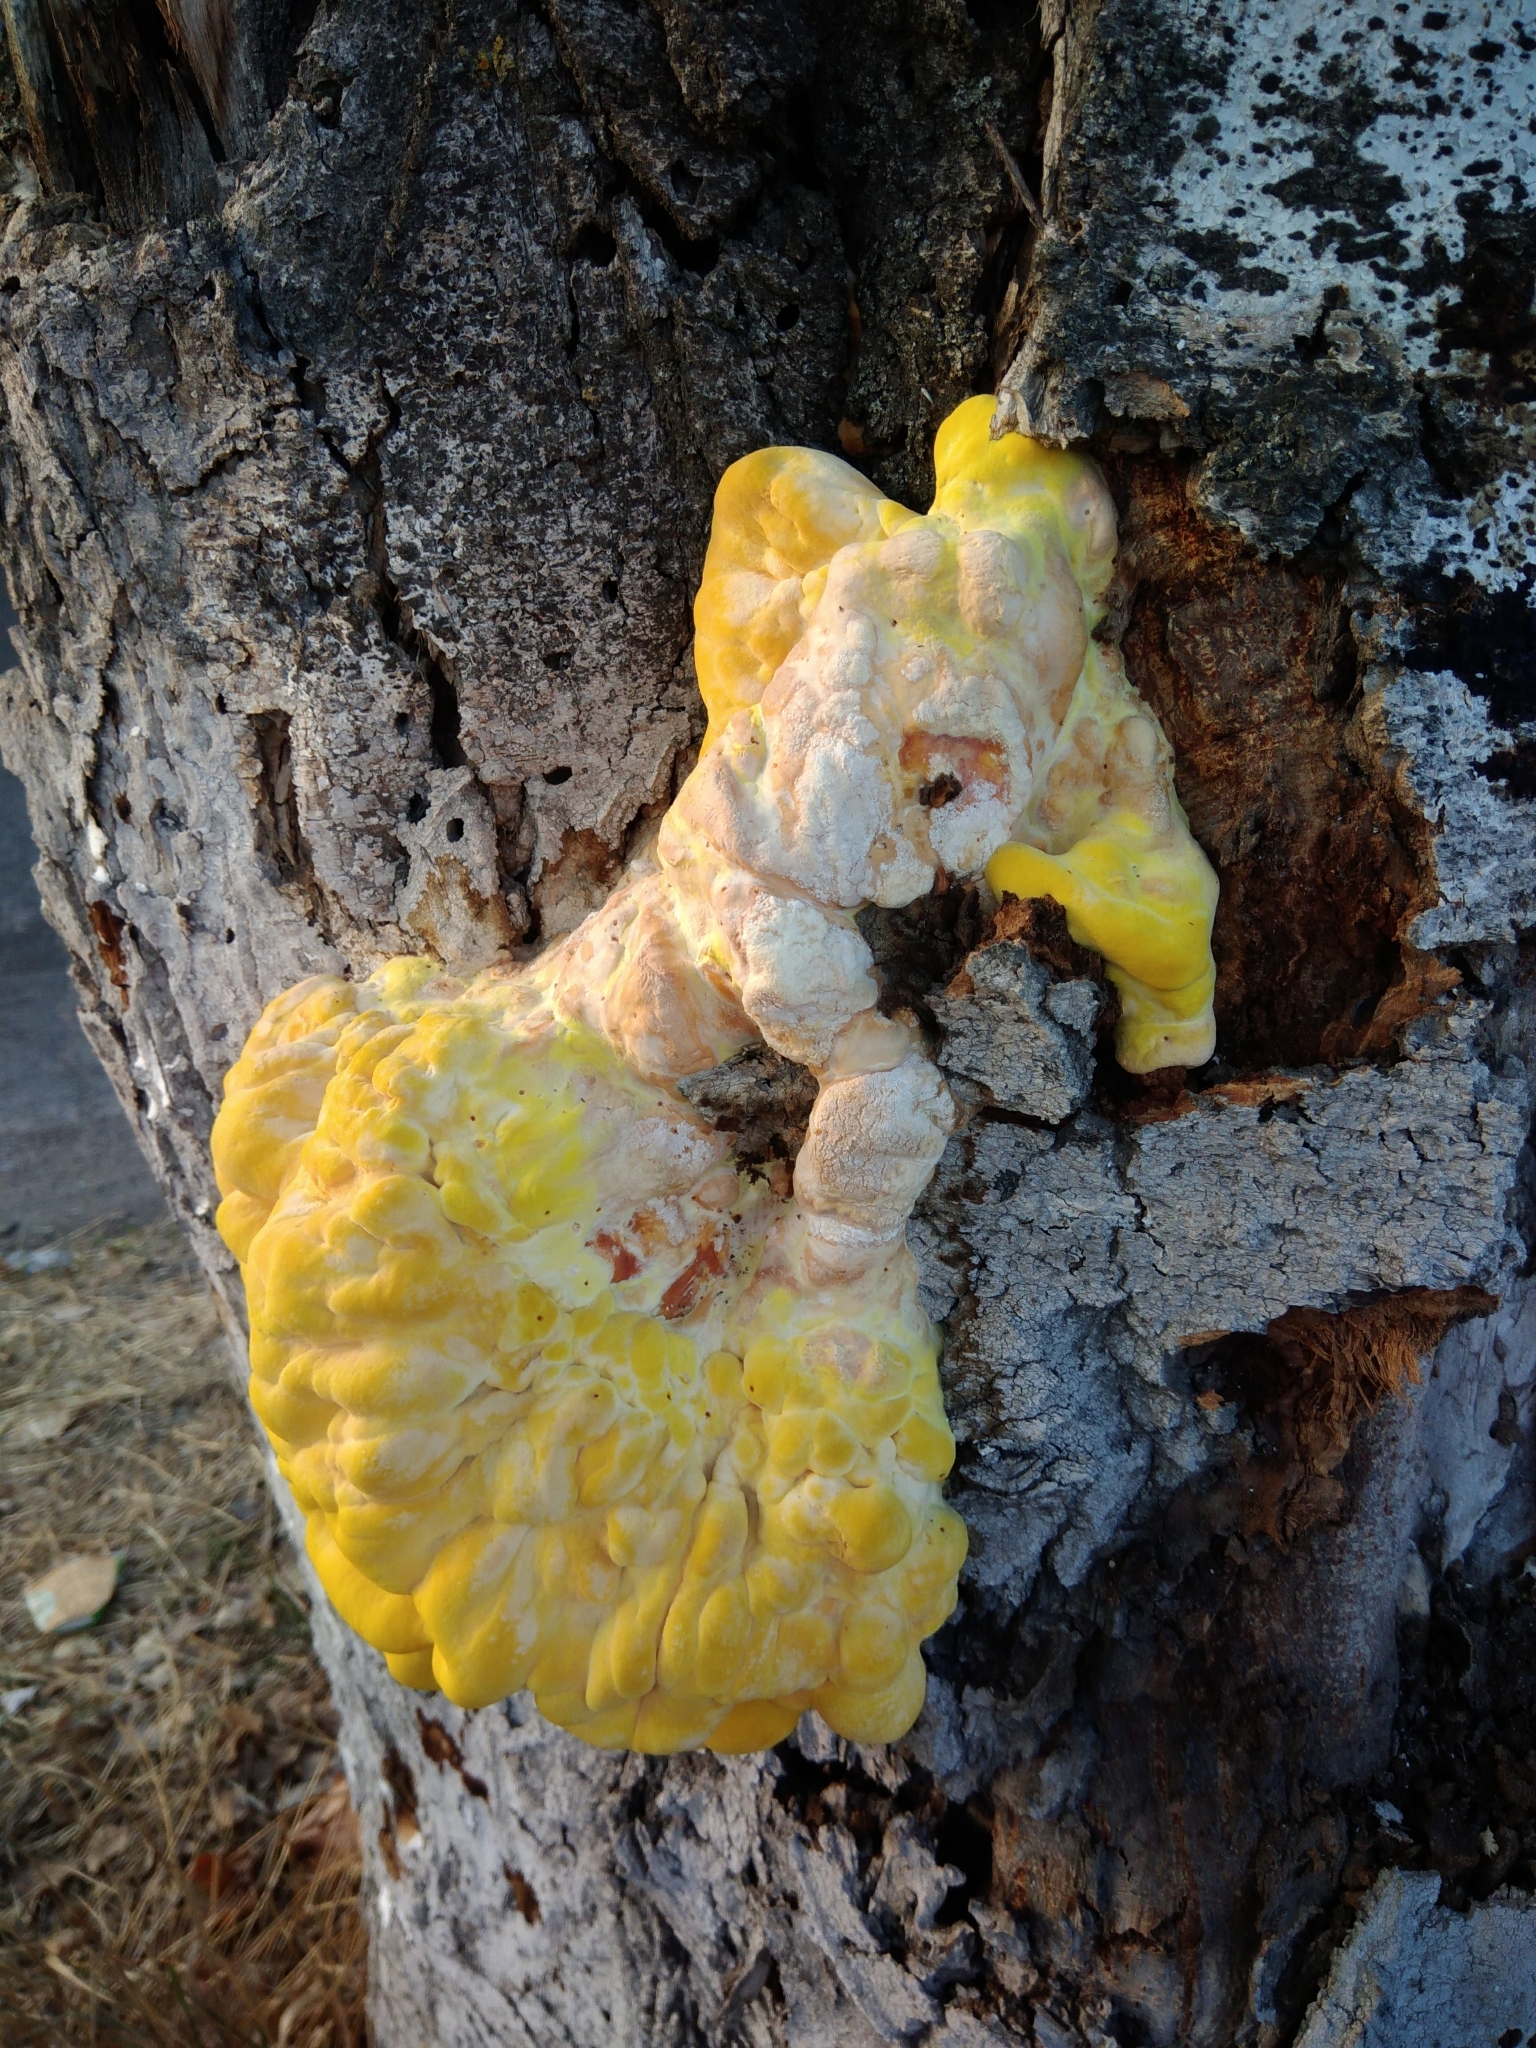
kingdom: Fungi
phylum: Basidiomycota
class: Agaricomycetes
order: Polyporales
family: Laetiporaceae
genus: Laetiporus
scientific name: Laetiporus sulphureus
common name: Chicken of the woods
